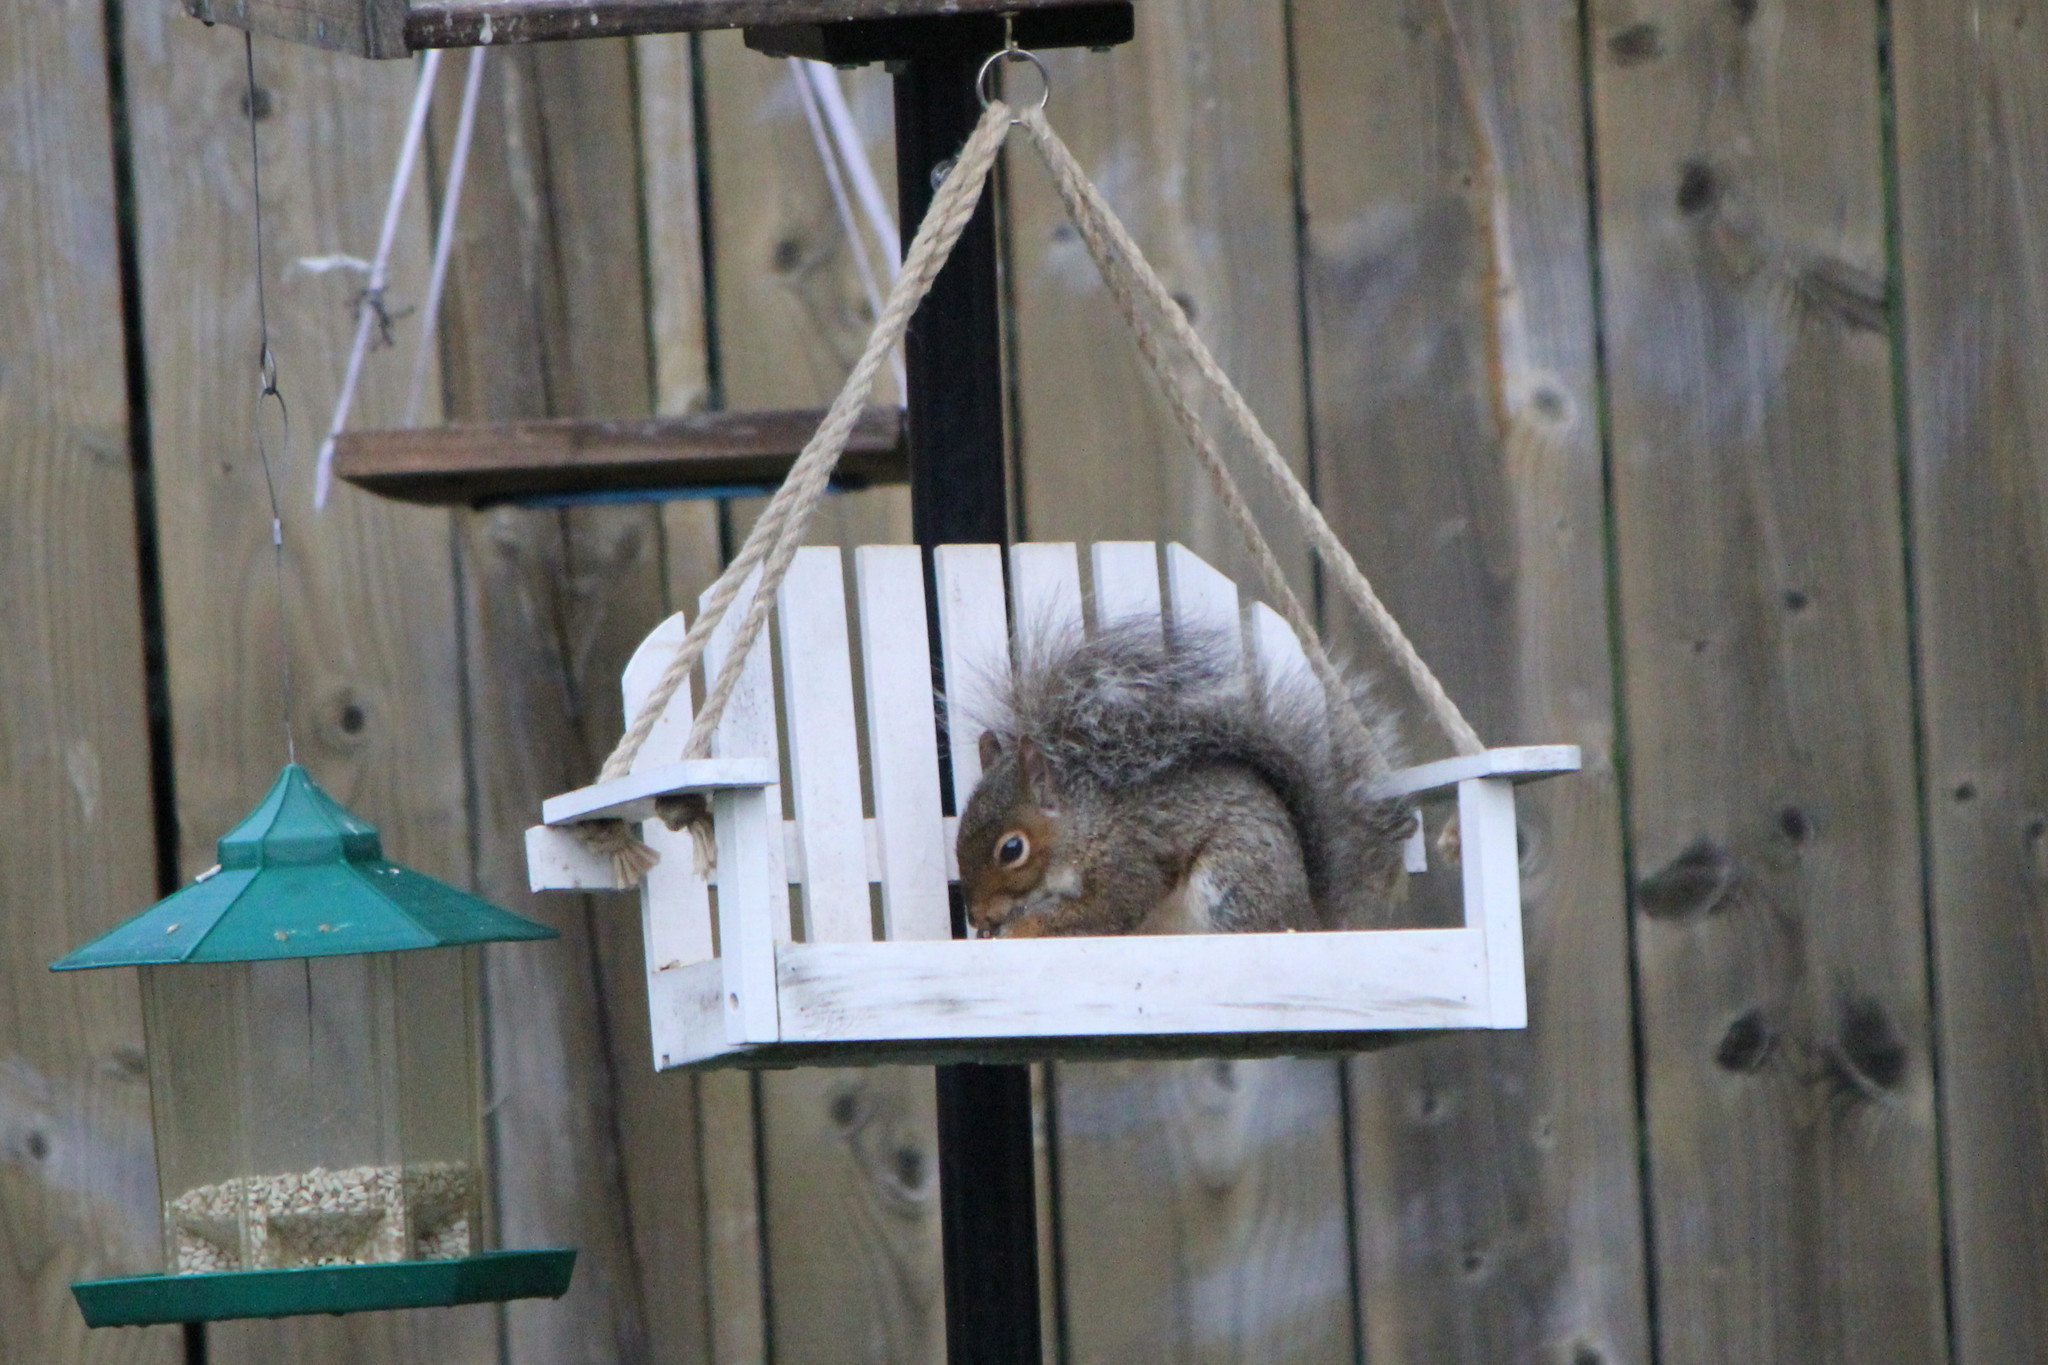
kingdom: Animalia
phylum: Chordata
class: Mammalia
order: Rodentia
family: Sciuridae
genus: Sciurus
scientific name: Sciurus carolinensis
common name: Eastern gray squirrel
